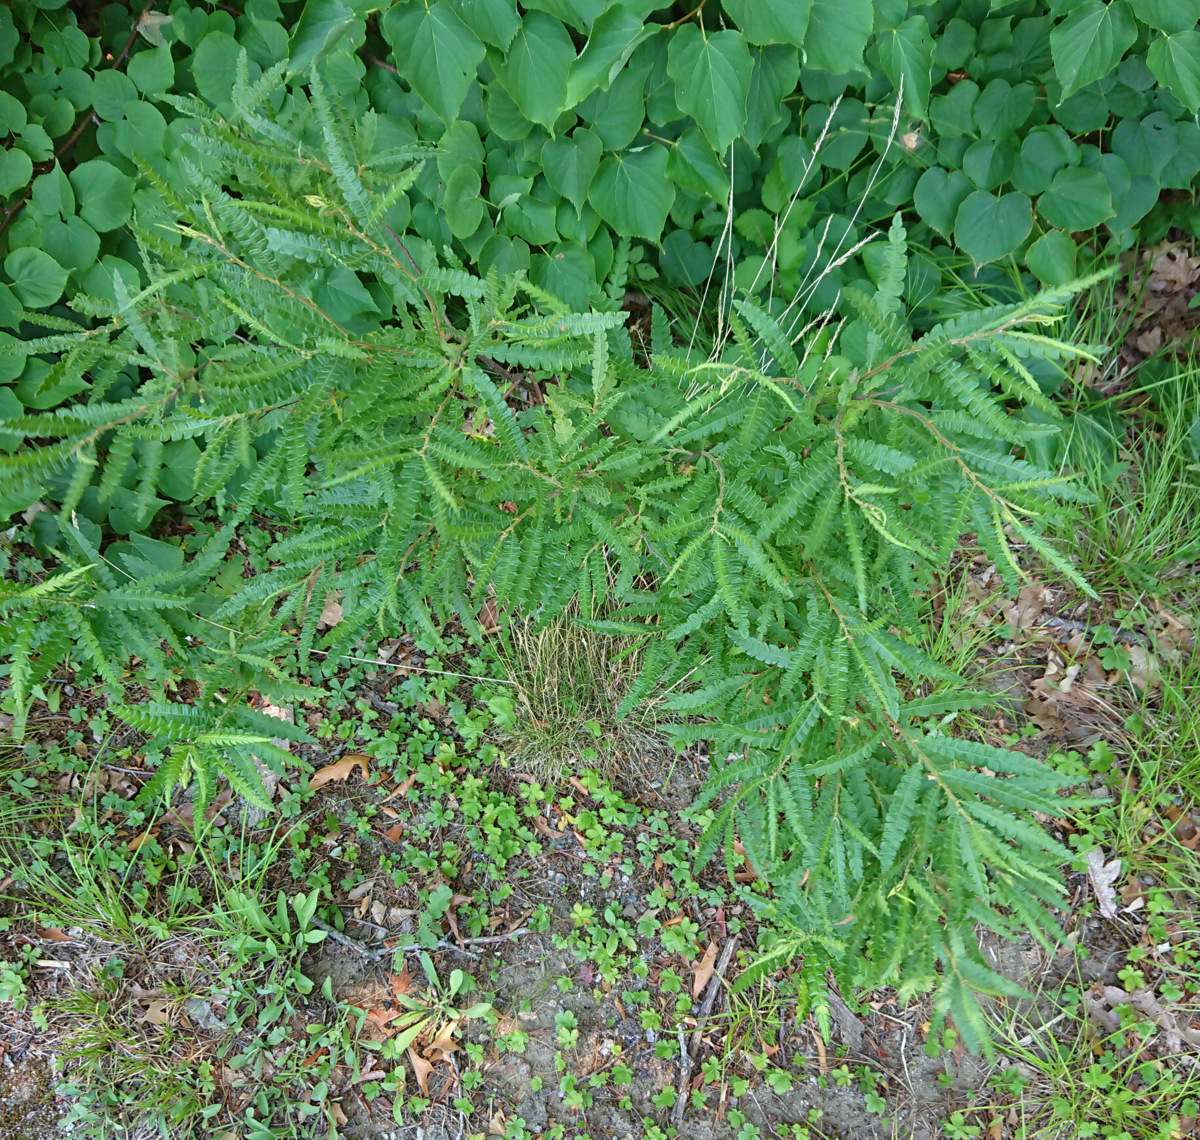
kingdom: Plantae
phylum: Tracheophyta
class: Magnoliopsida
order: Fagales
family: Myricaceae
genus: Comptonia
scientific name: Comptonia peregrina
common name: Sweet-fern
